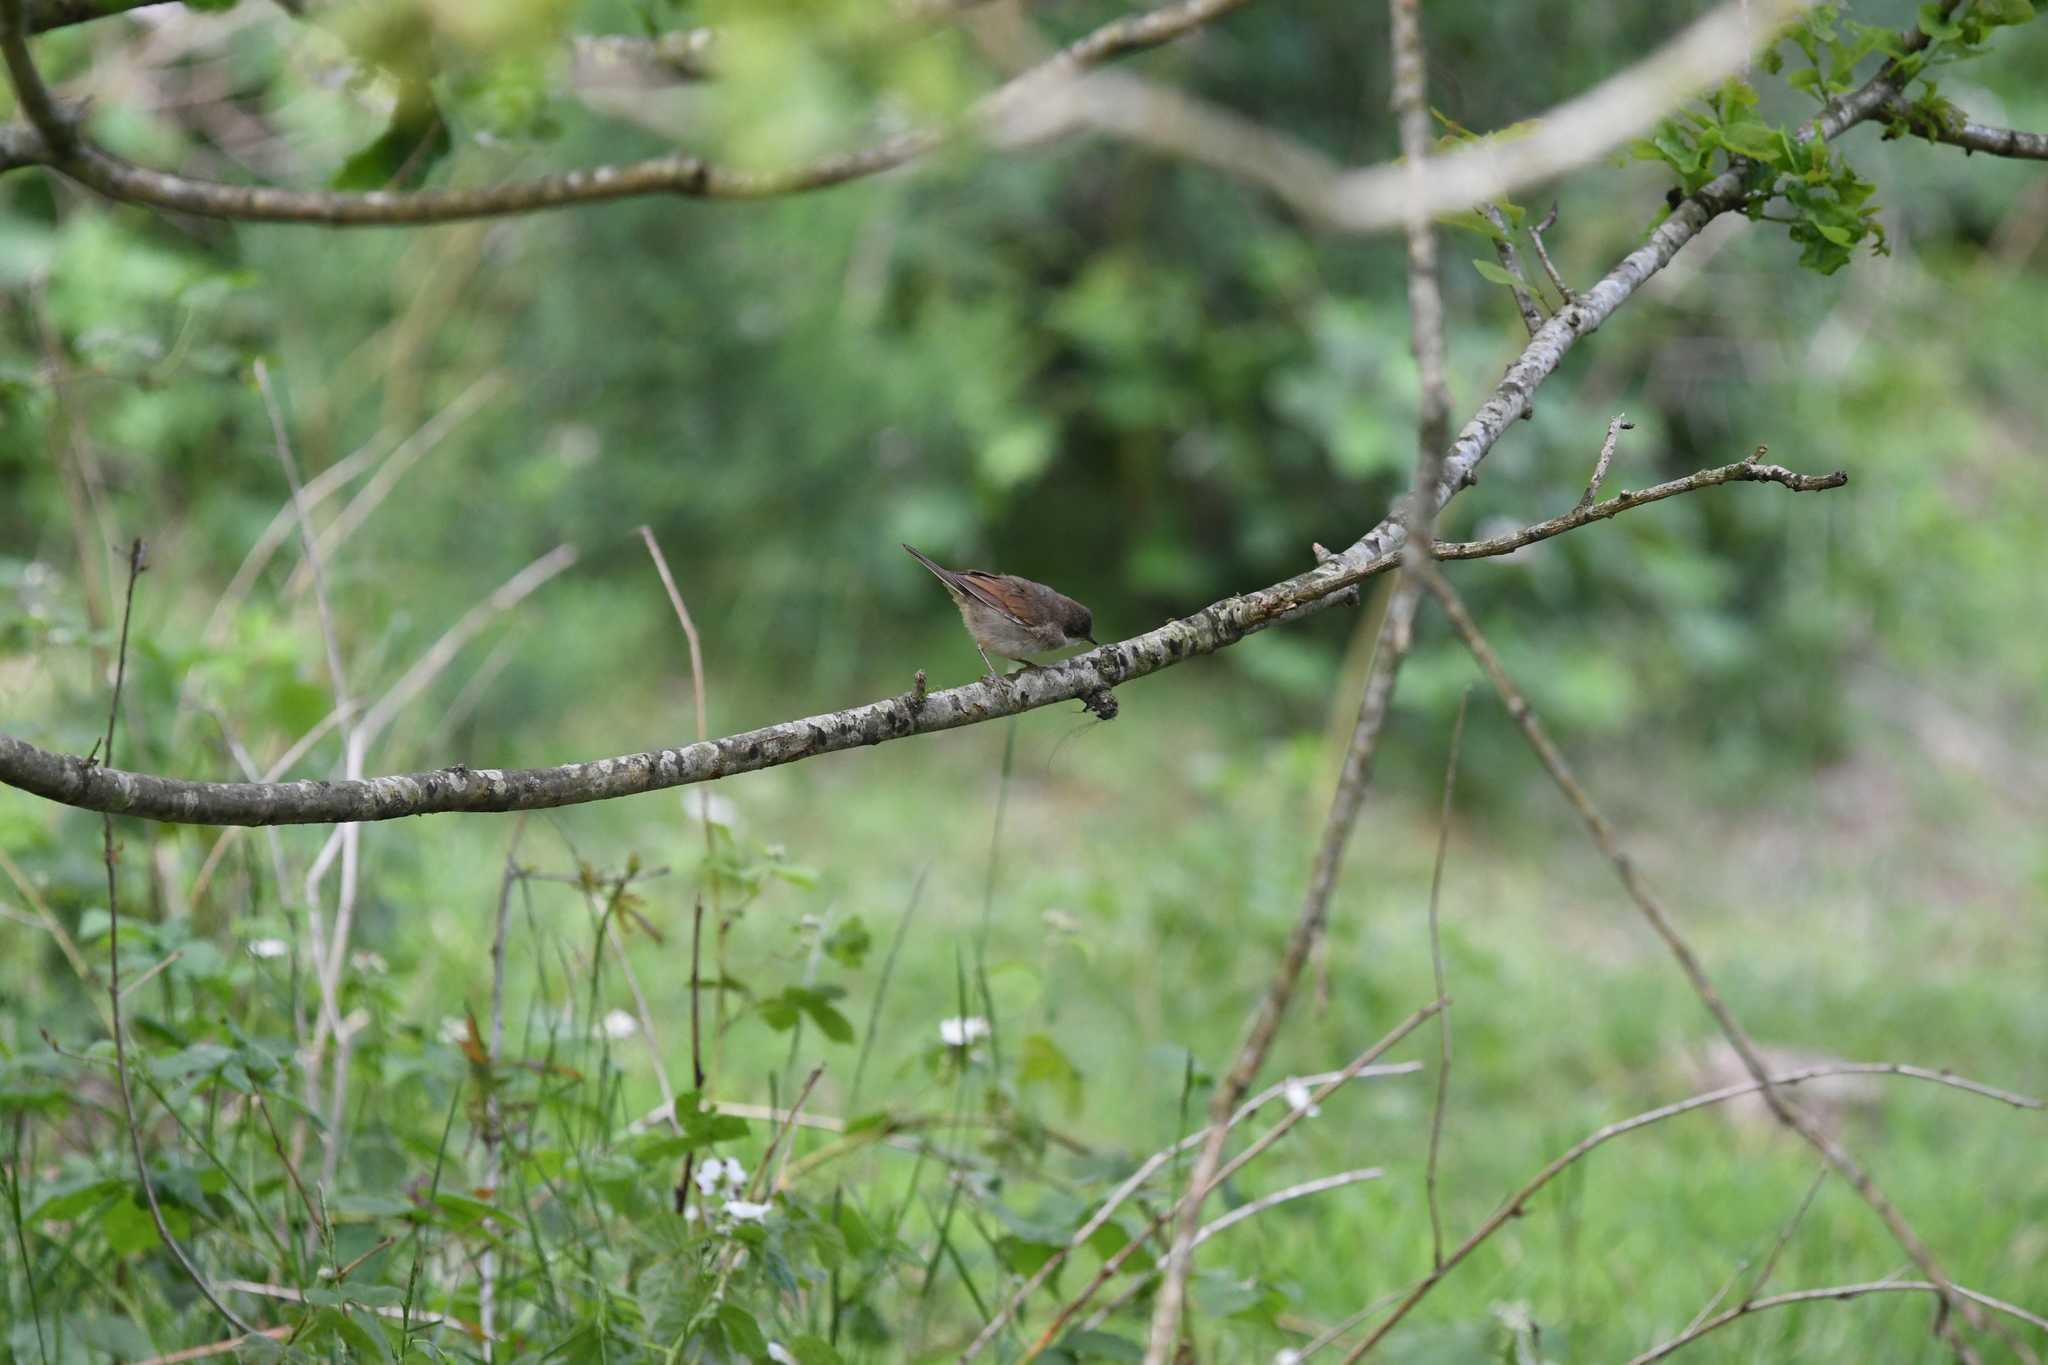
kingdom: Animalia
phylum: Chordata
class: Aves
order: Passeriformes
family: Sylviidae
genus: Sylvia
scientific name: Sylvia communis
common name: Common whitethroat
